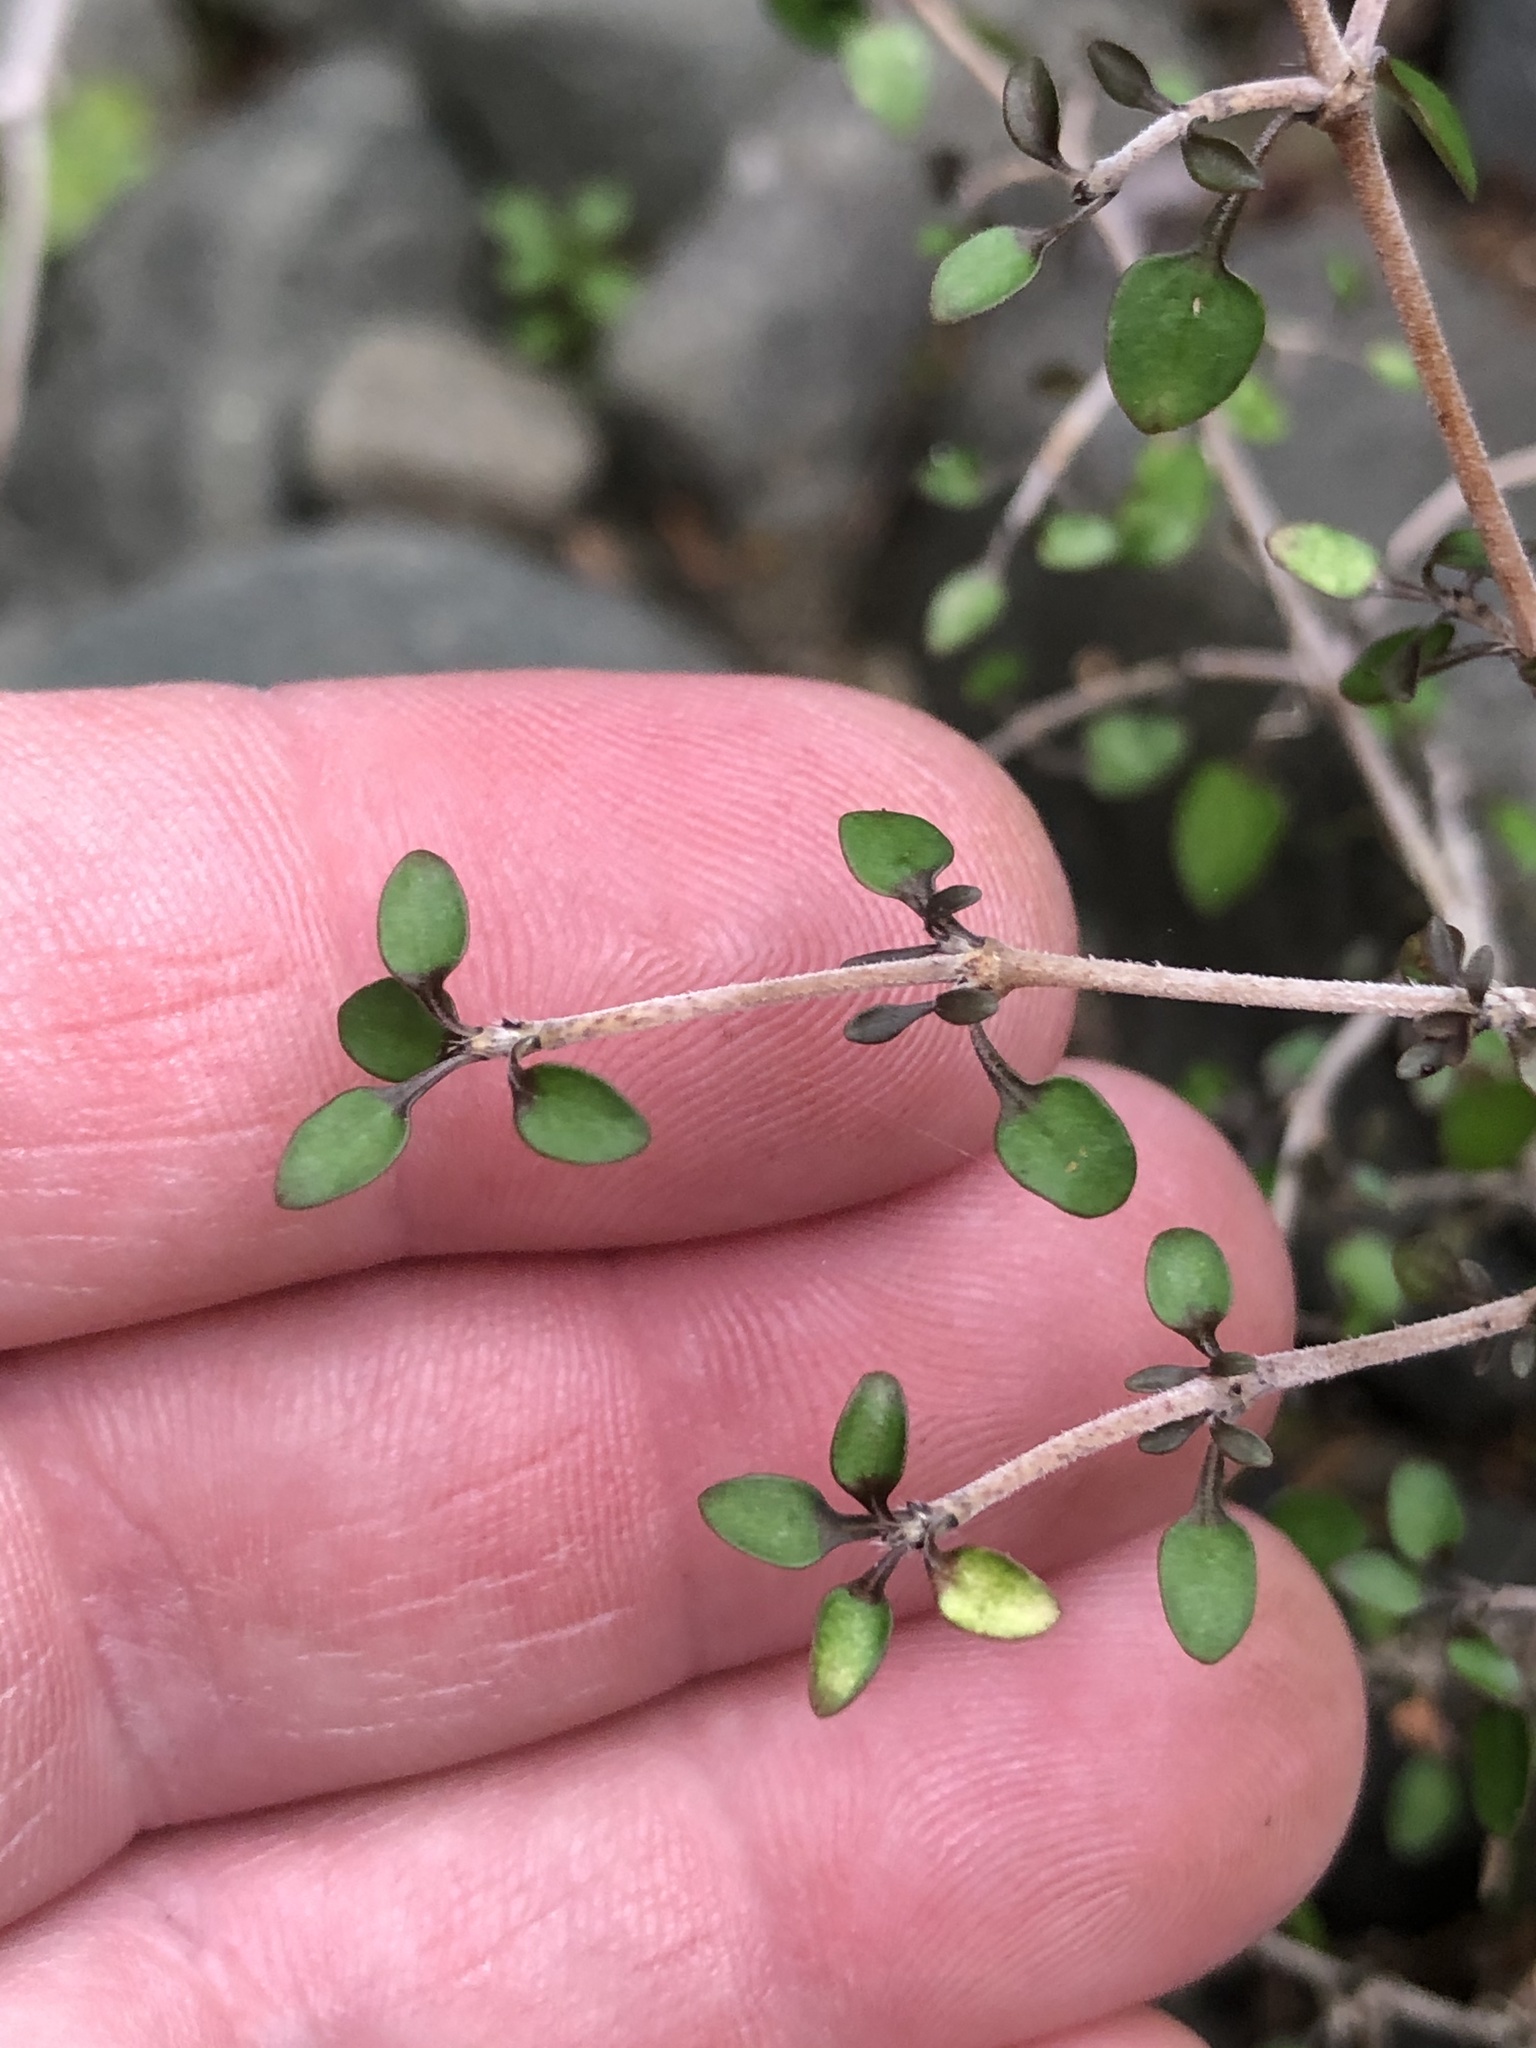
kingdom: Plantae
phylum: Tracheophyta
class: Magnoliopsida
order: Gentianales
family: Rubiaceae
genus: Coprosma
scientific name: Coprosma propinqua
